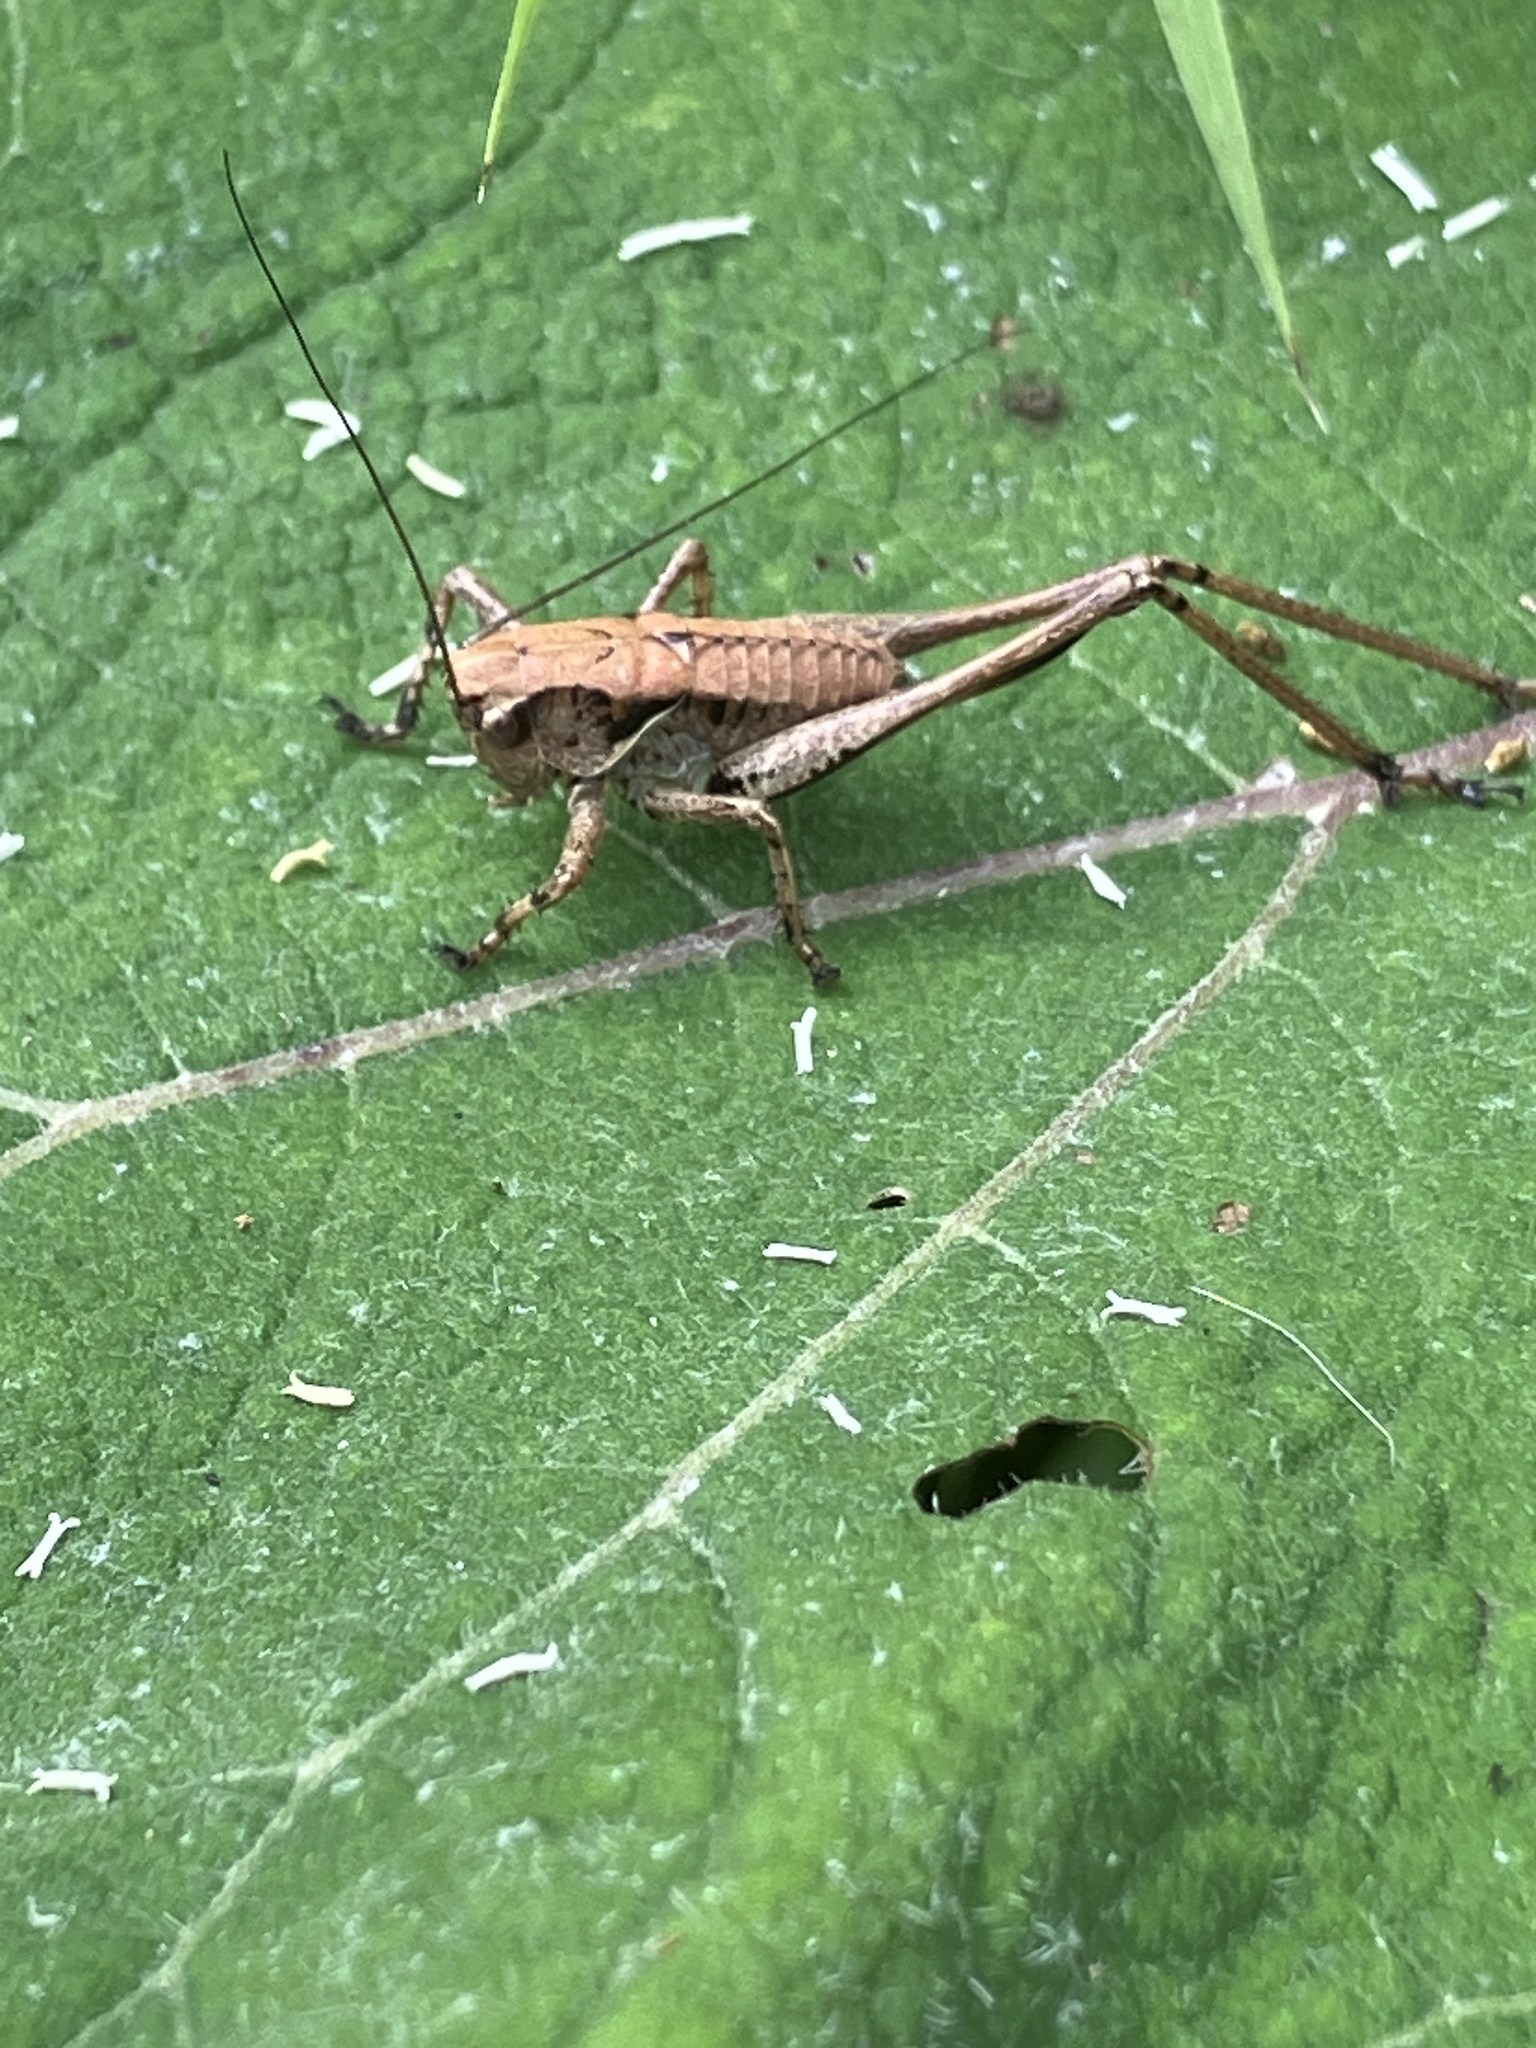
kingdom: Animalia
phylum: Arthropoda
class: Insecta
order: Orthoptera
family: Tettigoniidae
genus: Pholidoptera
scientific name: Pholidoptera griseoaptera
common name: Dark bush-cricket
